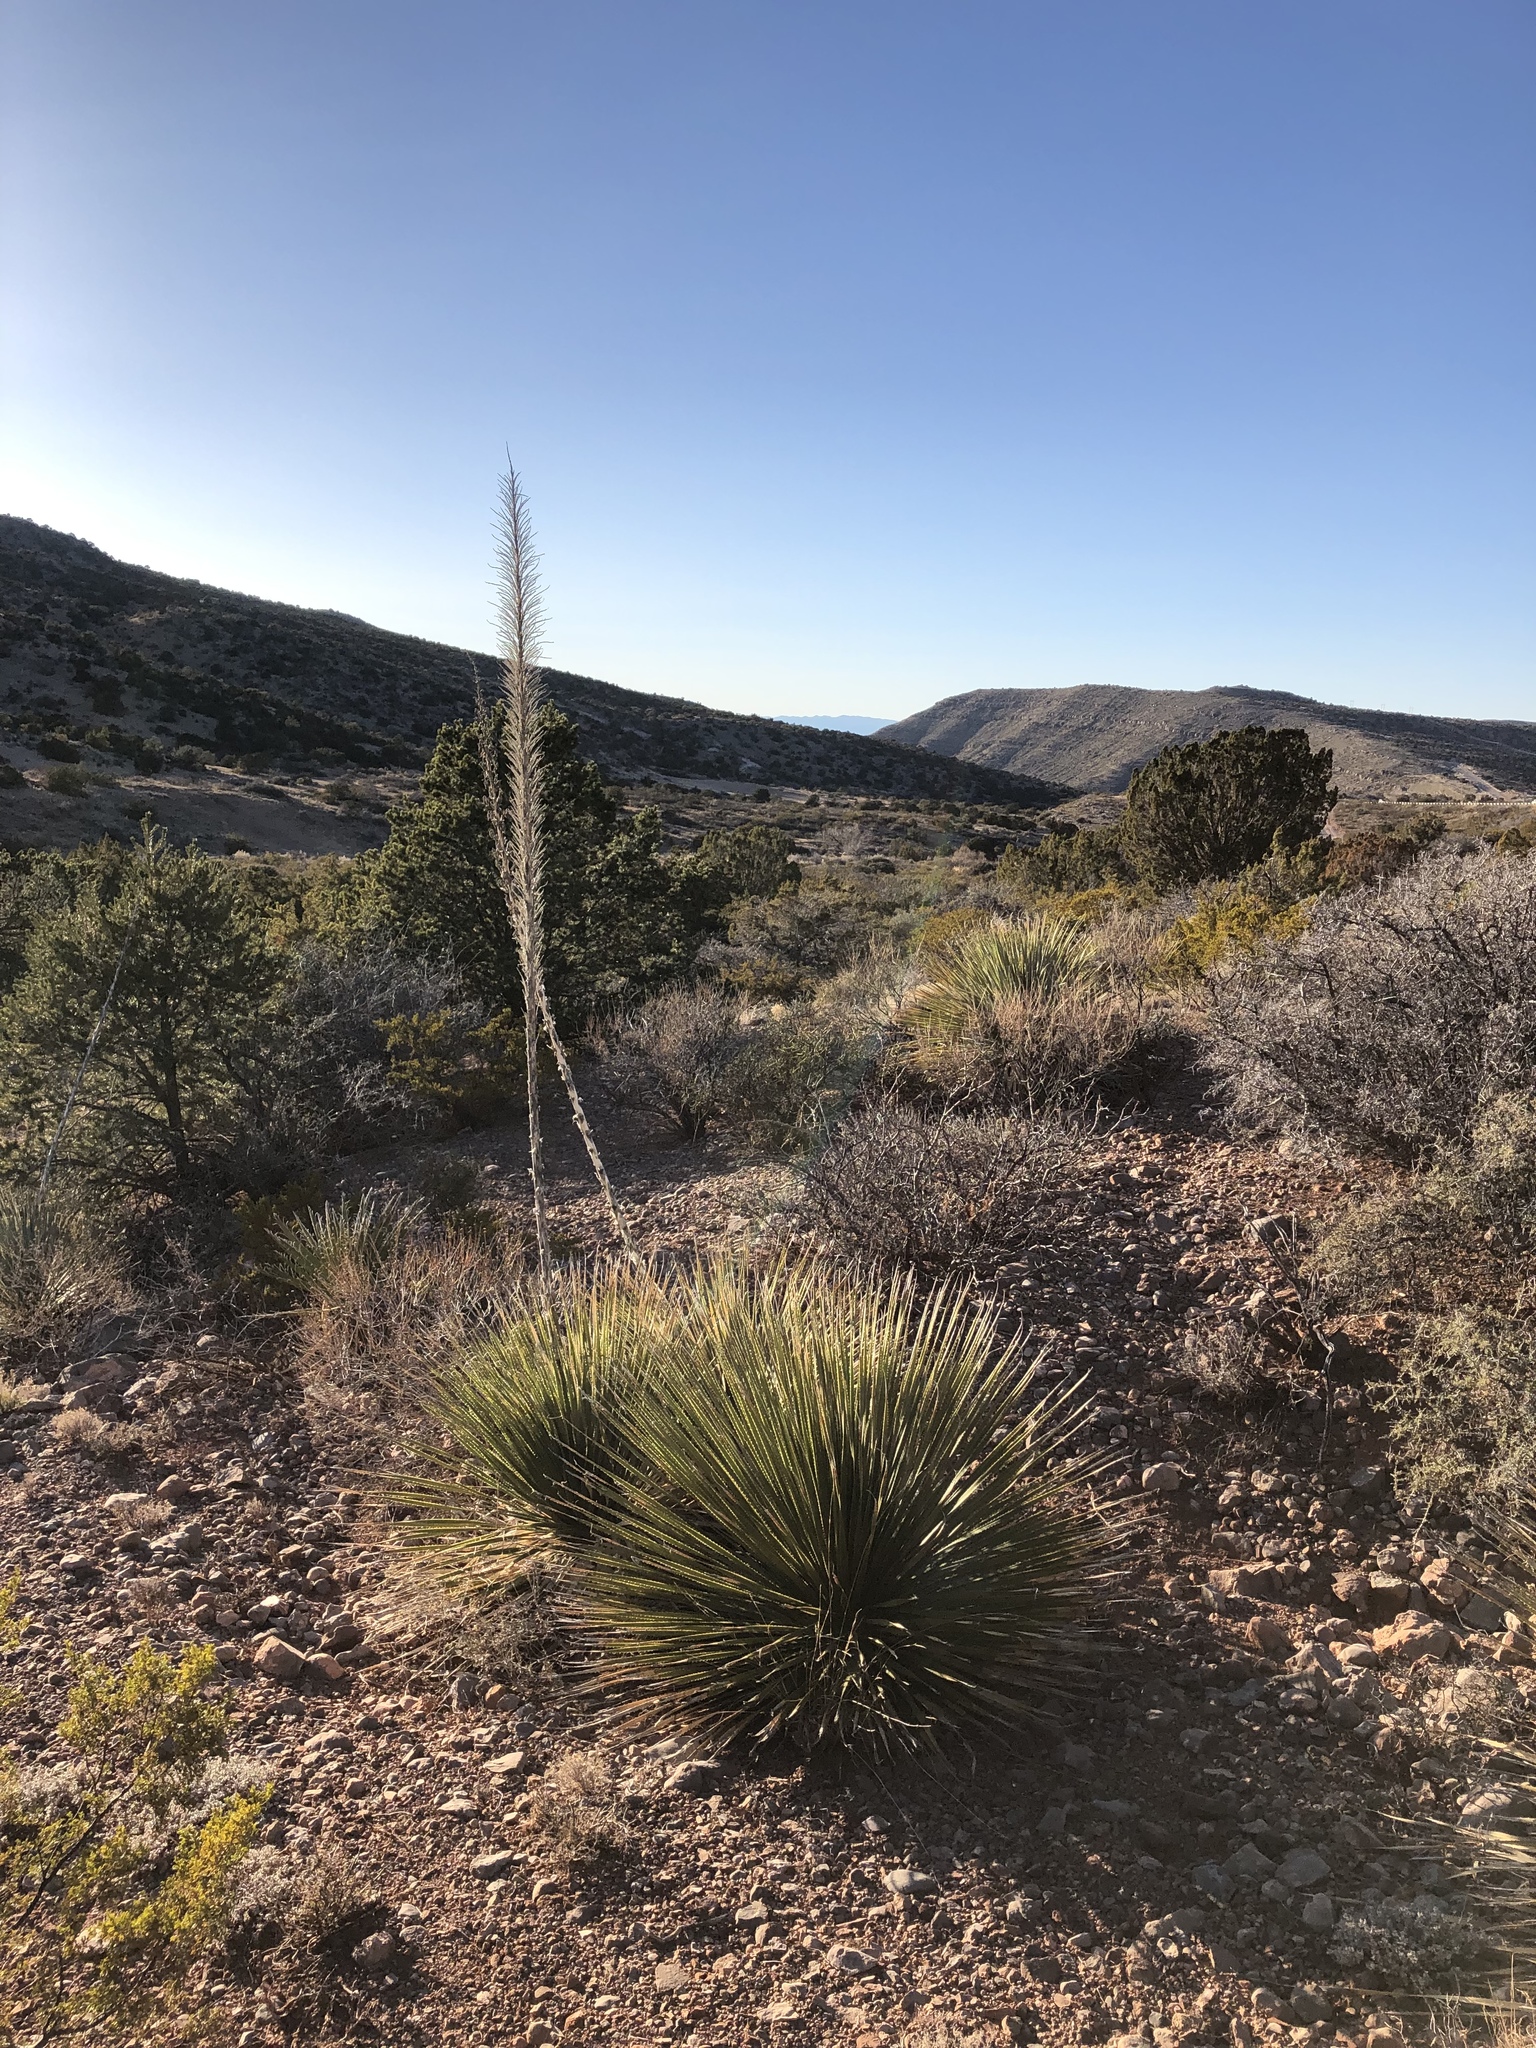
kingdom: Plantae
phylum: Tracheophyta
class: Liliopsida
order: Asparagales
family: Asparagaceae
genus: Dasylirion
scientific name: Dasylirion wheeleri
